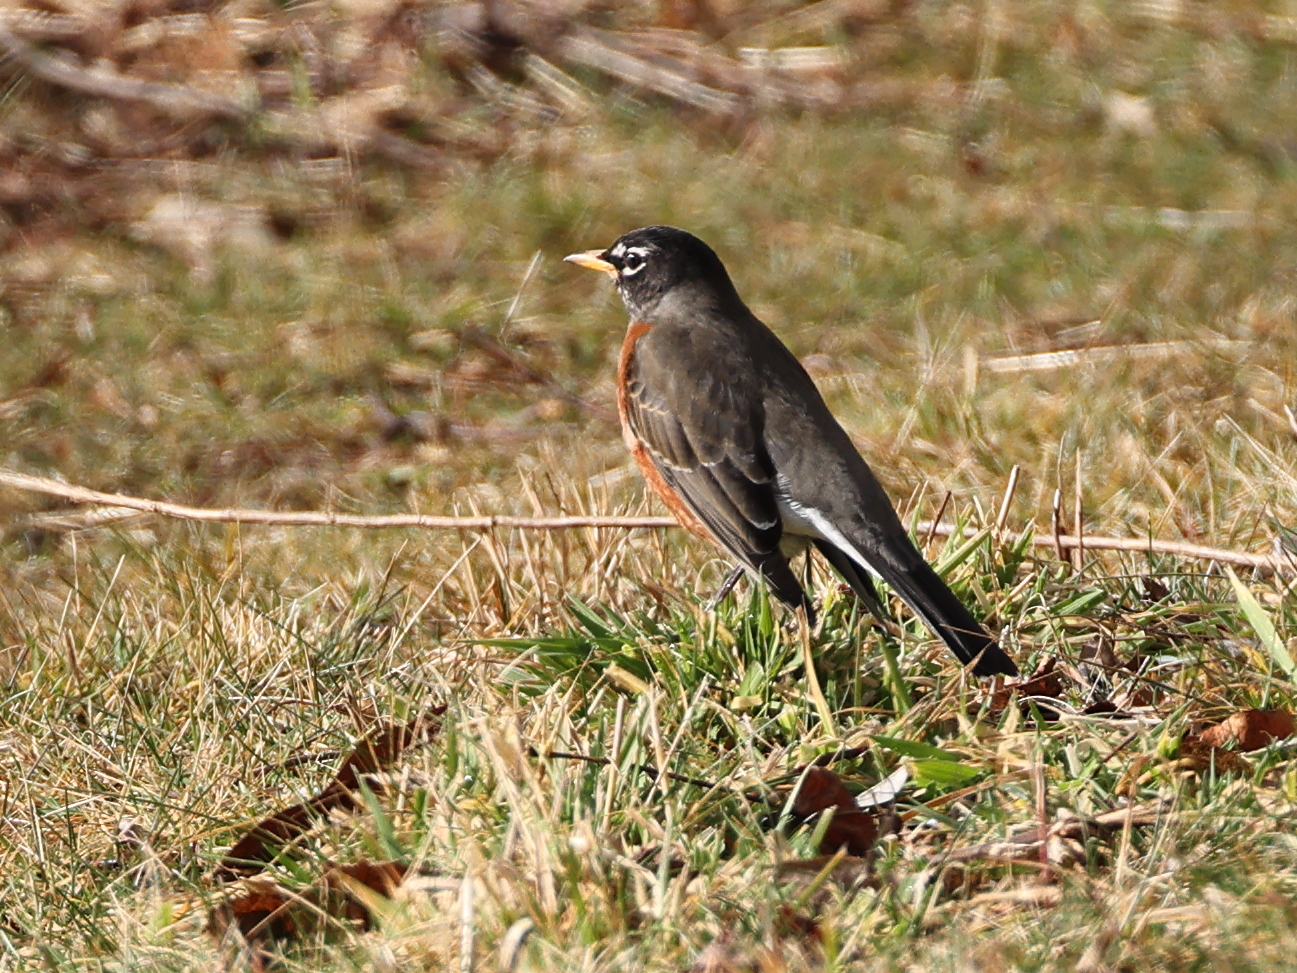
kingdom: Animalia
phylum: Chordata
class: Aves
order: Passeriformes
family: Turdidae
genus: Turdus
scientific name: Turdus migratorius
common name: American robin
